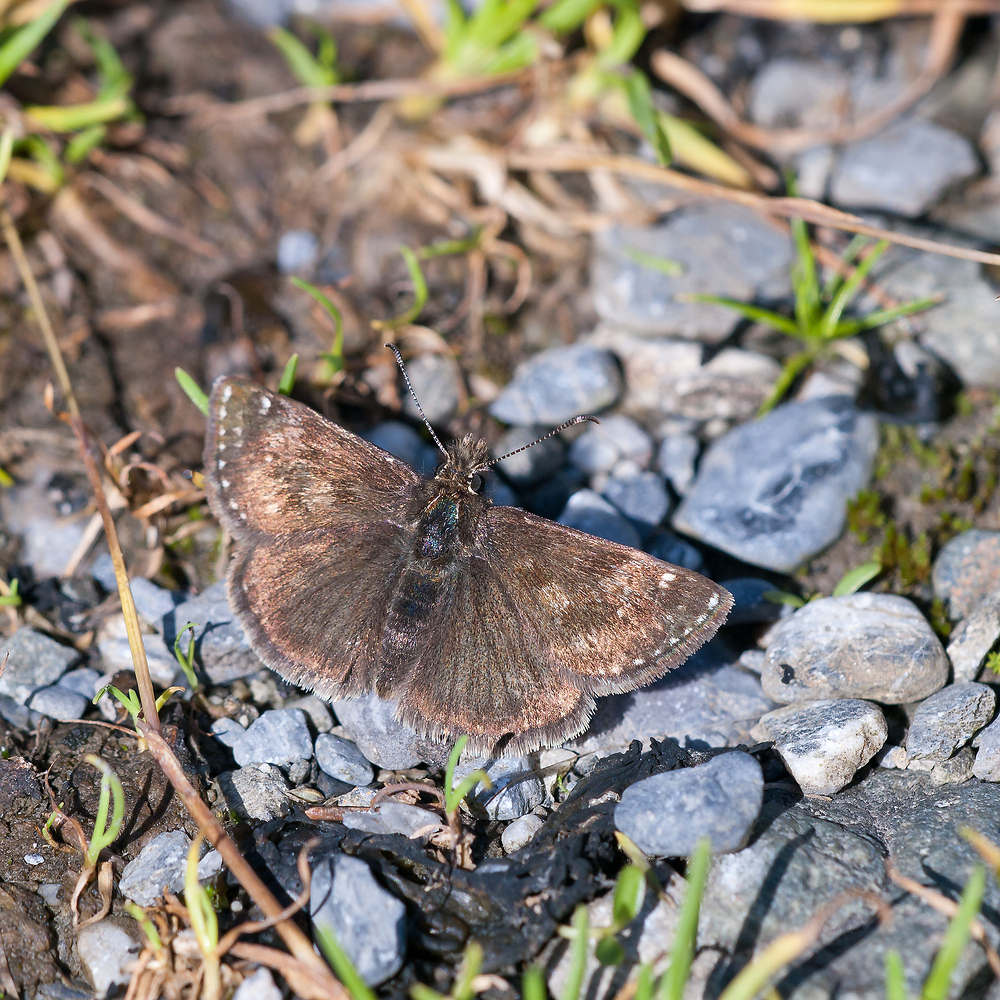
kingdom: Animalia
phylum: Arthropoda
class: Insecta
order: Lepidoptera
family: Hesperiidae
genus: Erynnis
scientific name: Erynnis tages
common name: Dingy skipper
